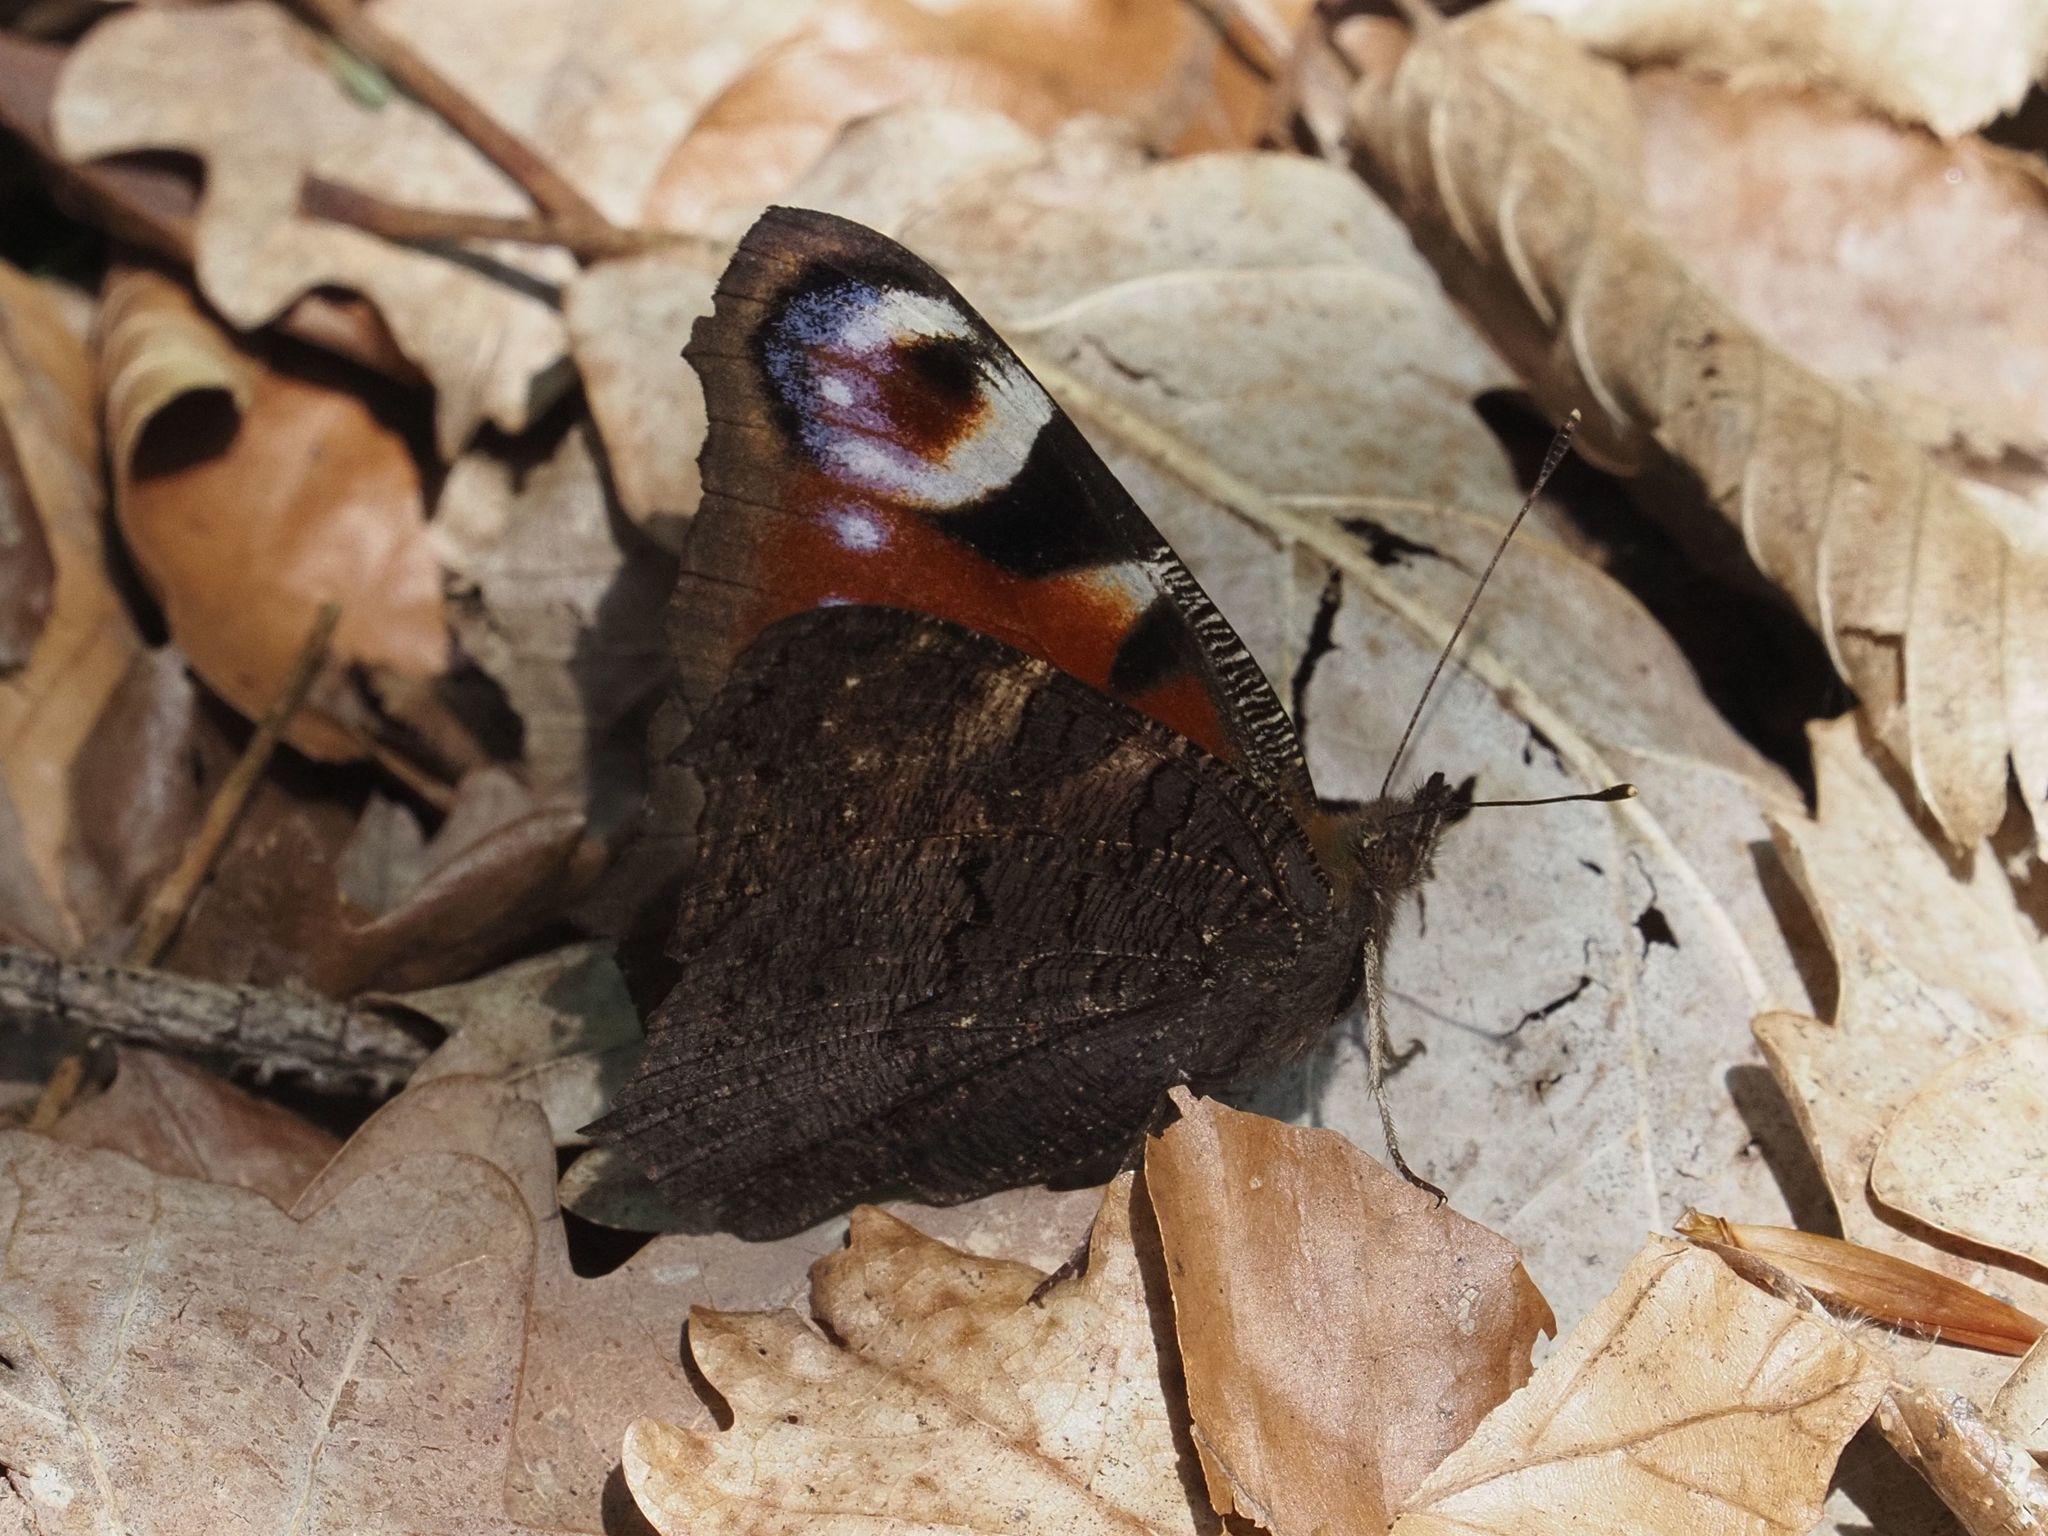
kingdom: Animalia
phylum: Arthropoda
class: Insecta
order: Lepidoptera
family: Nymphalidae
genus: Aglais
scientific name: Aglais io
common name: Peacock
